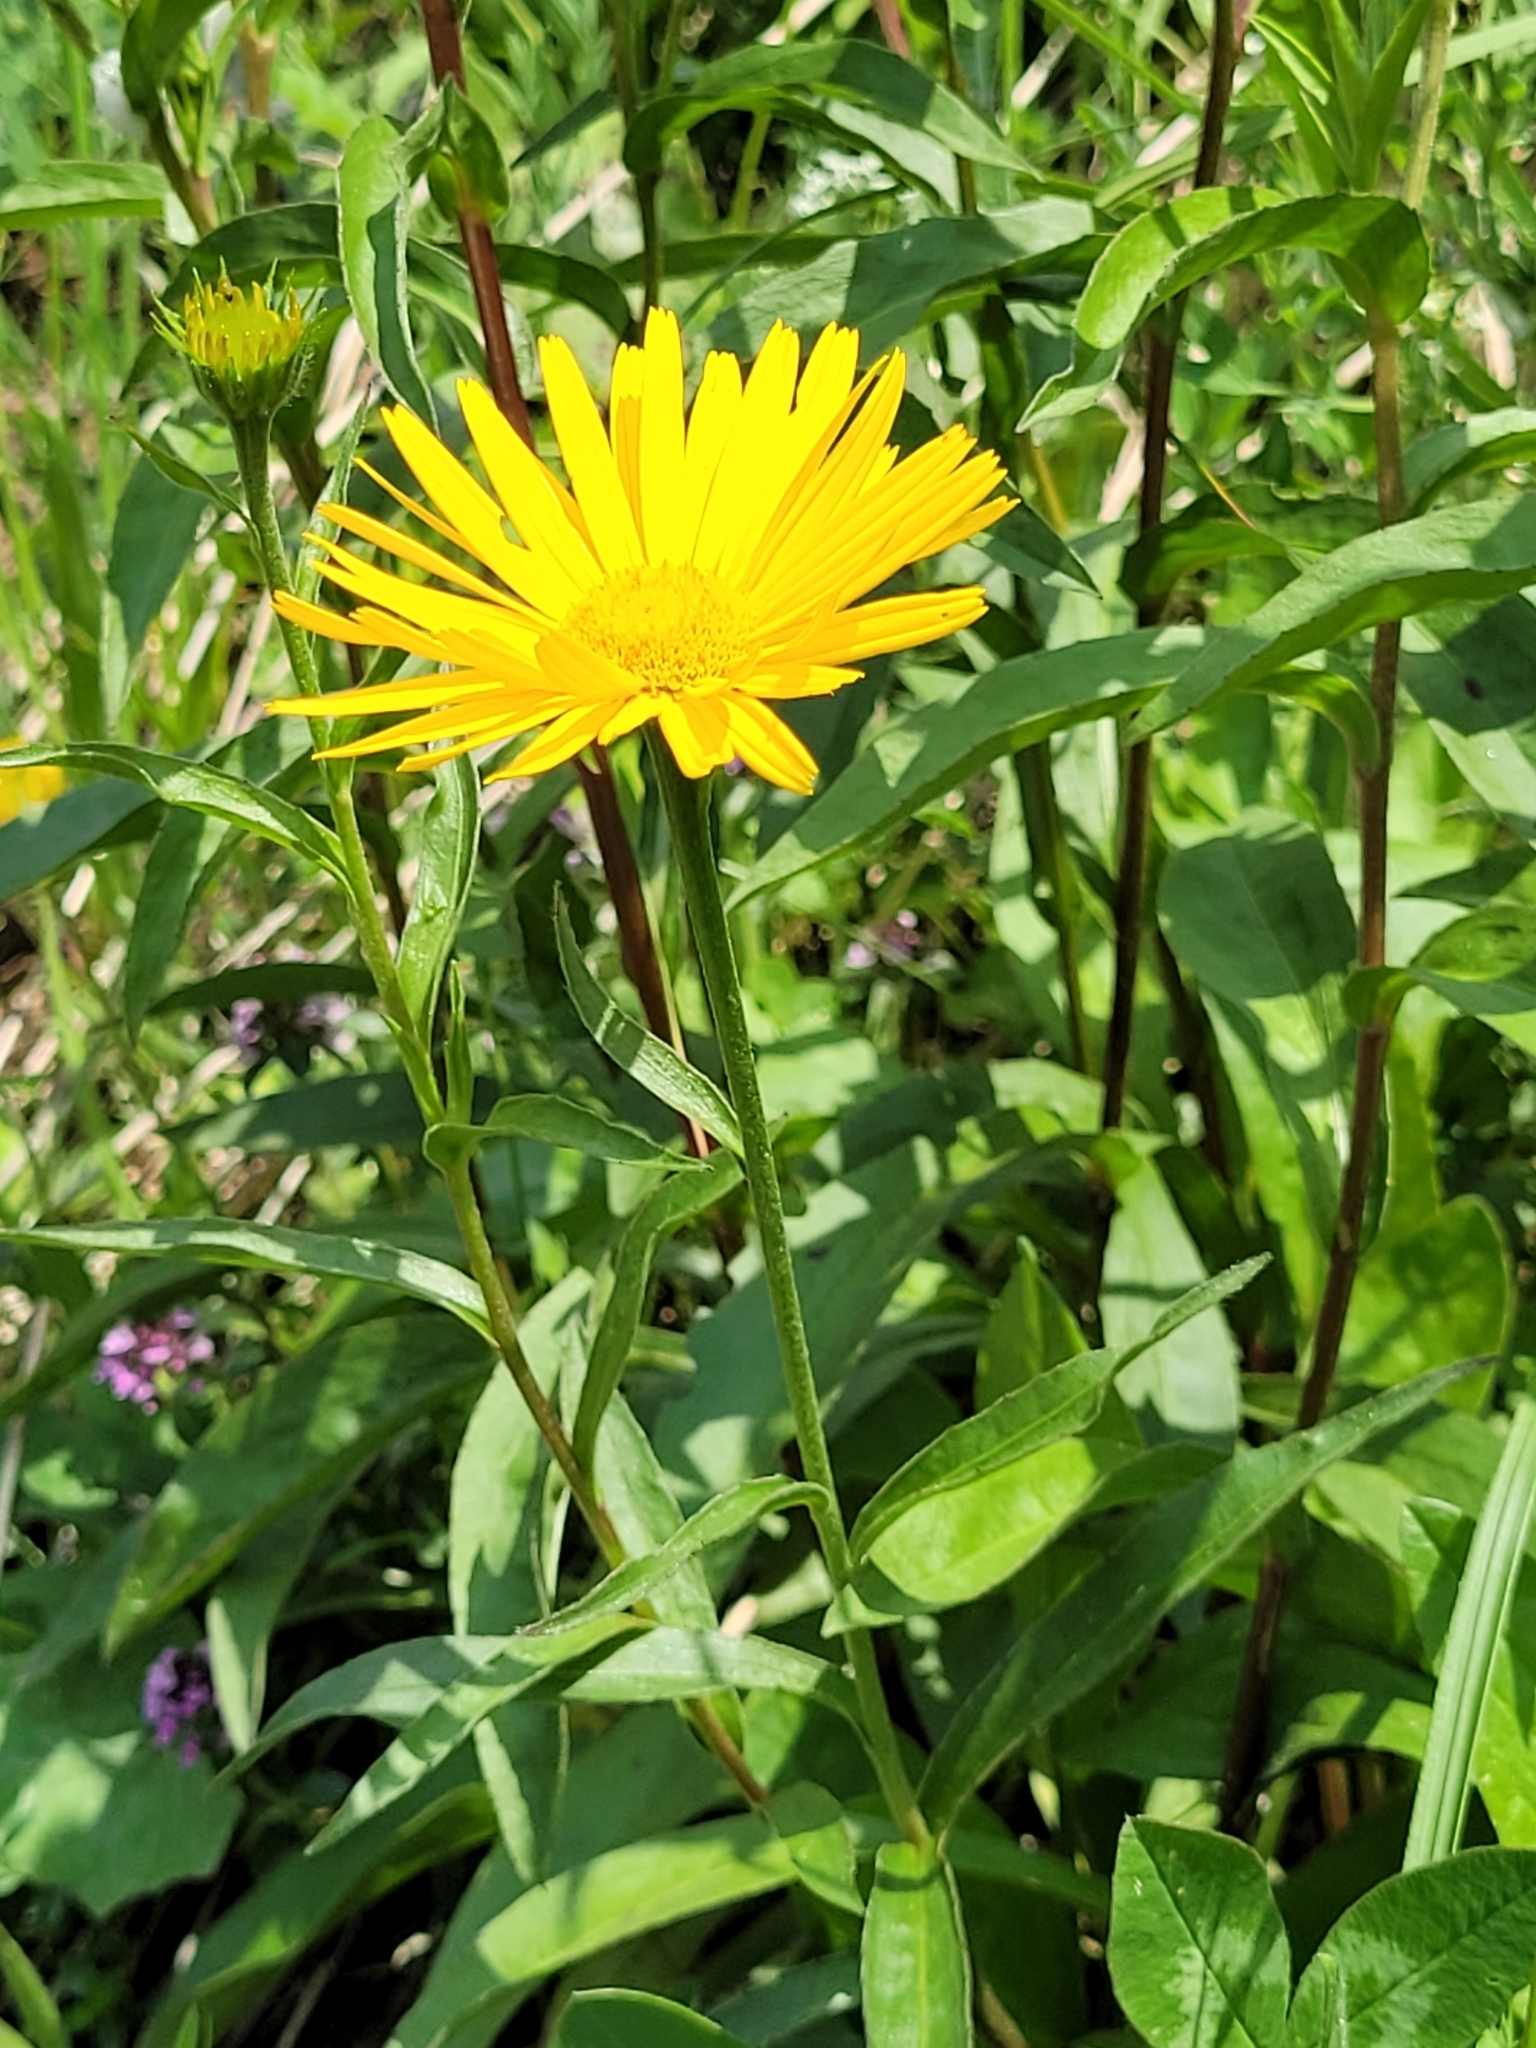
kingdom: Plantae
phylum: Tracheophyta
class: Magnoliopsida
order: Asterales
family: Asteraceae
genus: Buphthalmum
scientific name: Buphthalmum salicifolium
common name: Willow-leaved yellow-oxeye
